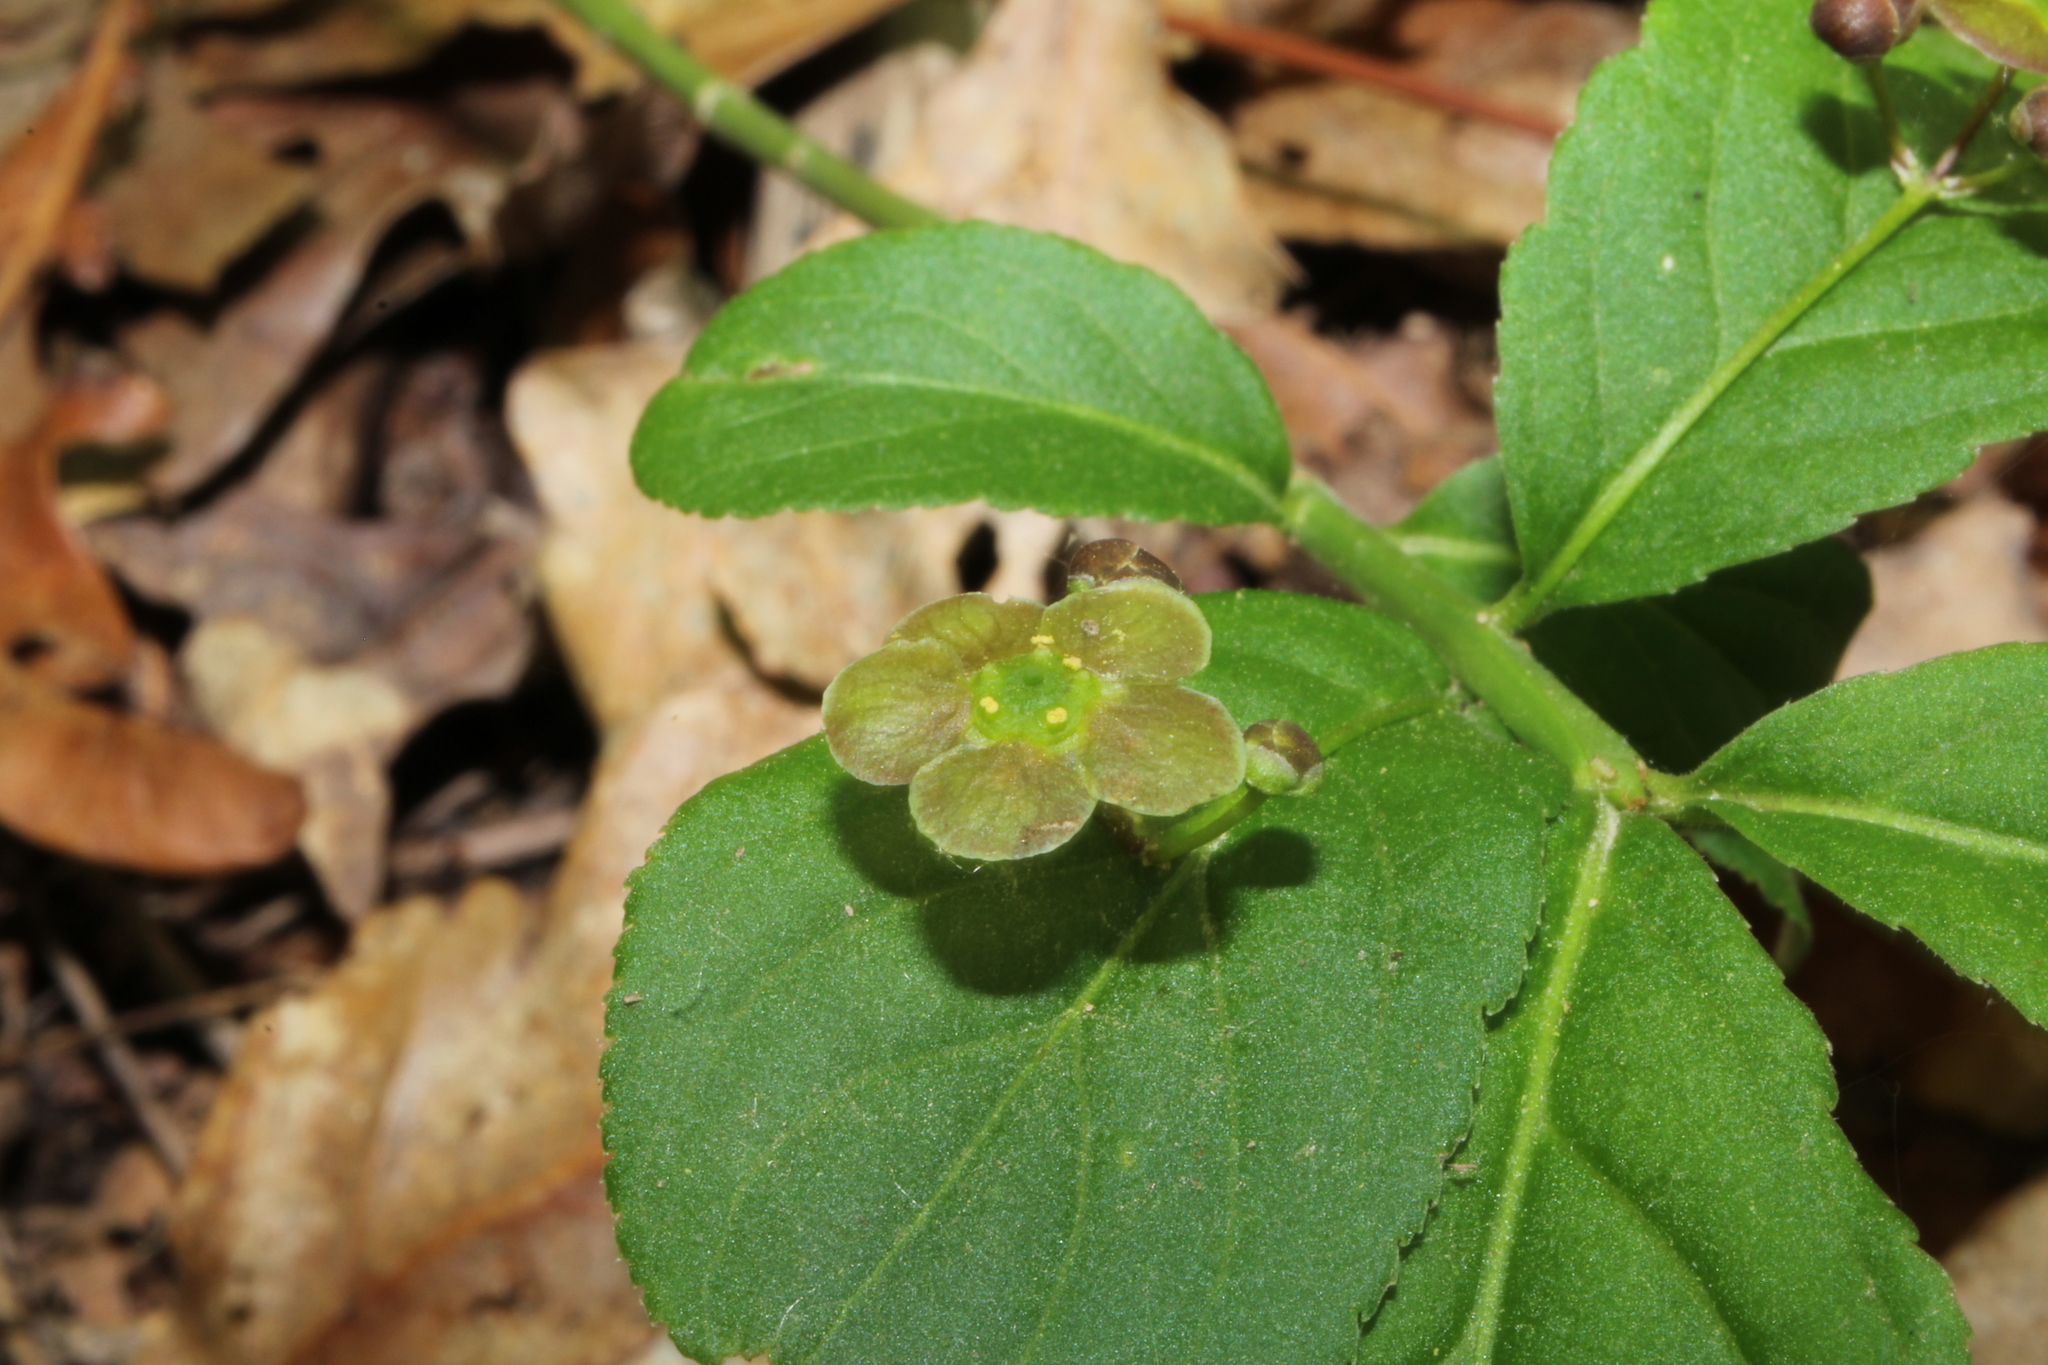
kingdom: Plantae
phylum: Tracheophyta
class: Magnoliopsida
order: Celastrales
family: Celastraceae
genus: Euonymus
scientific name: Euonymus obovatus
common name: Running strawberry-bush
